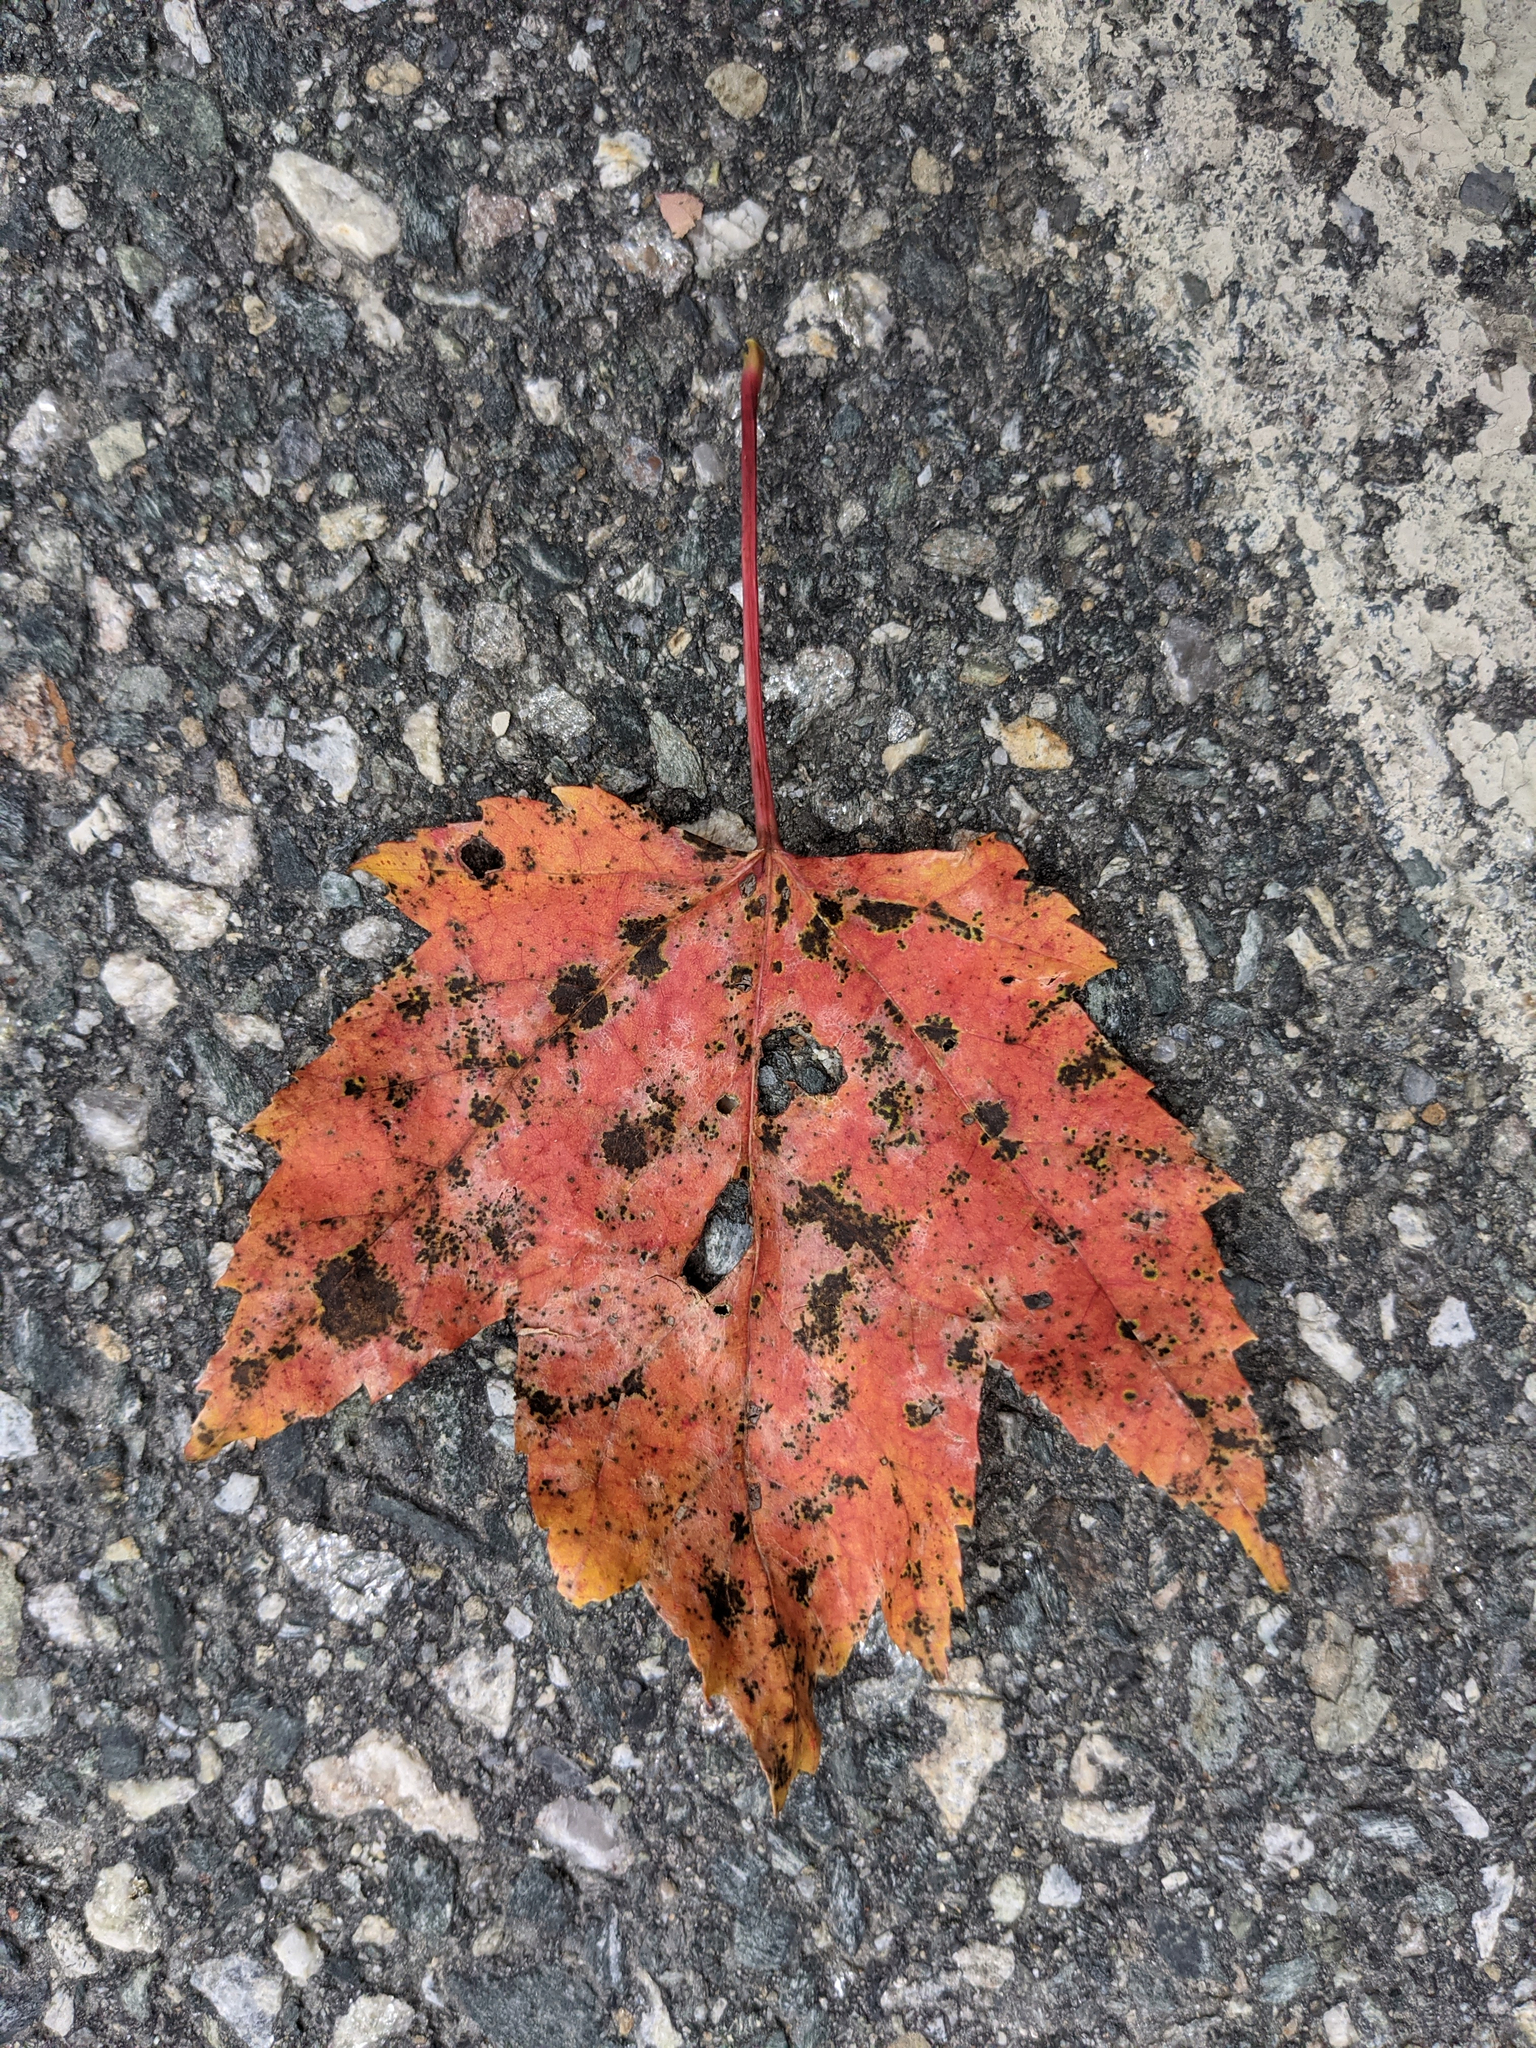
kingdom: Plantae
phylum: Tracheophyta
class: Magnoliopsida
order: Sapindales
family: Sapindaceae
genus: Acer
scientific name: Acer rubrum
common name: Red maple
